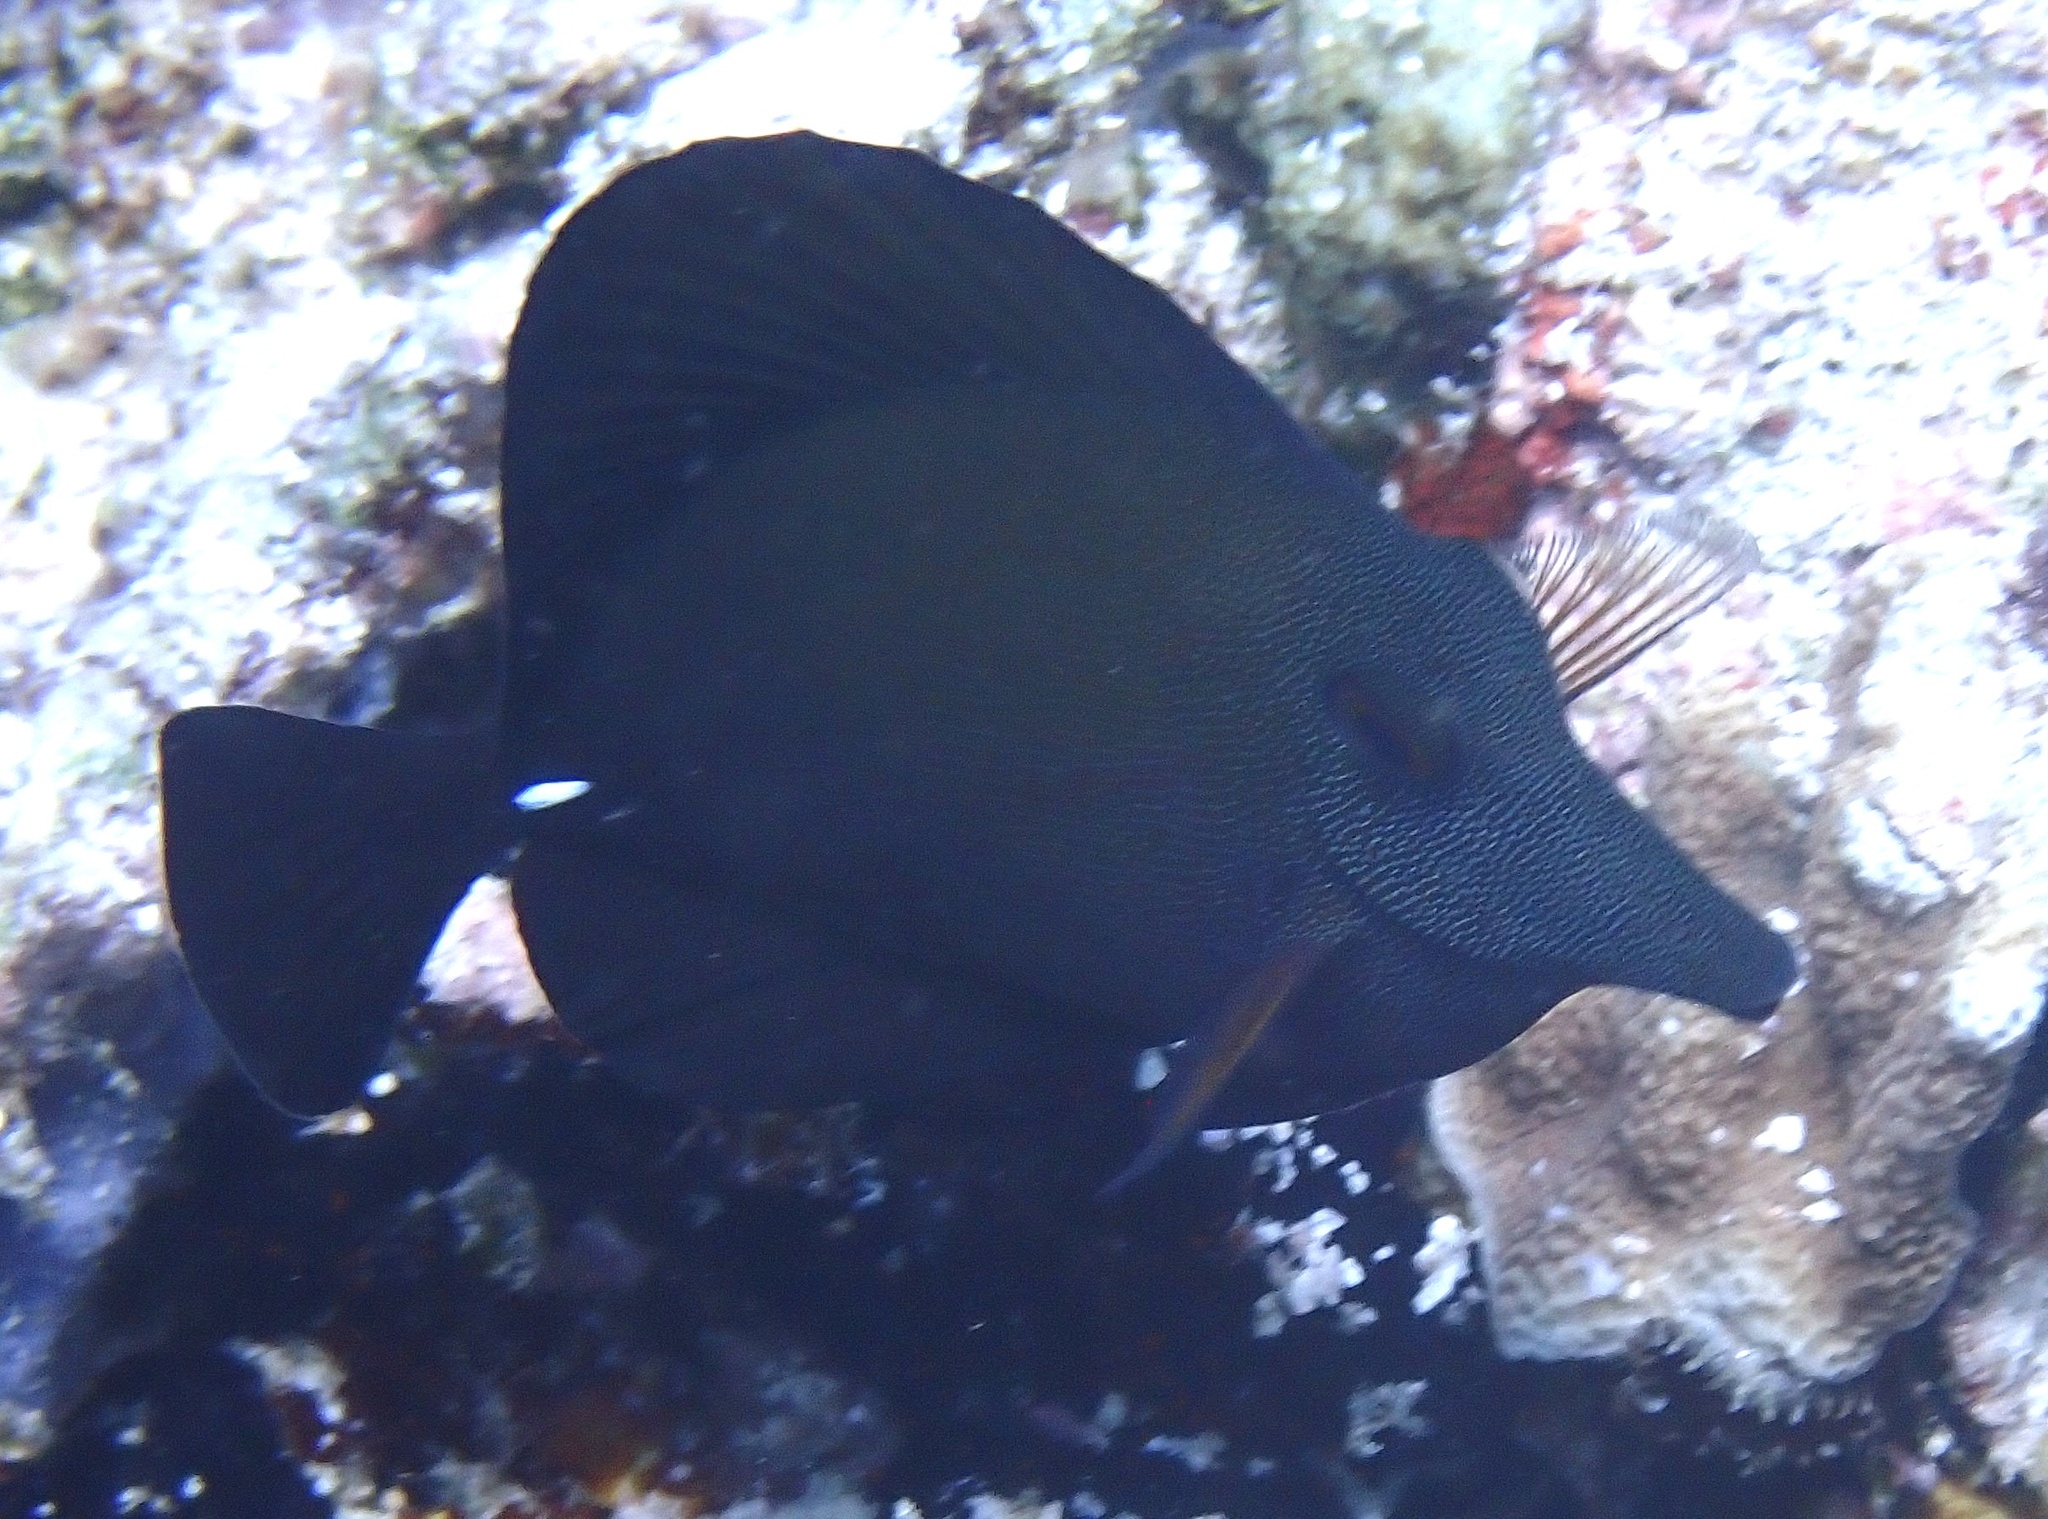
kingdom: Animalia
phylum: Chordata
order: Perciformes
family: Acanthuridae
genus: Zebrasoma
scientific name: Zebrasoma scopas
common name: Twotone tang
